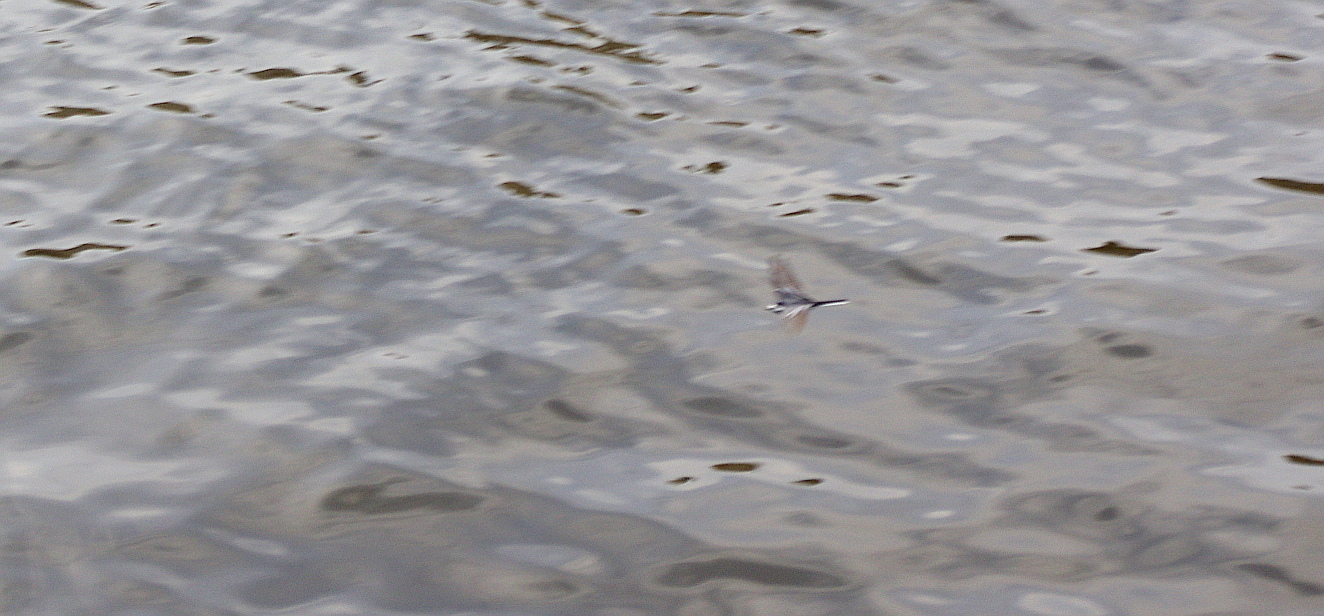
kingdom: Animalia
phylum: Chordata
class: Aves
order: Passeriformes
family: Motacillidae
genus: Motacilla
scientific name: Motacilla alba
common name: White wagtail
